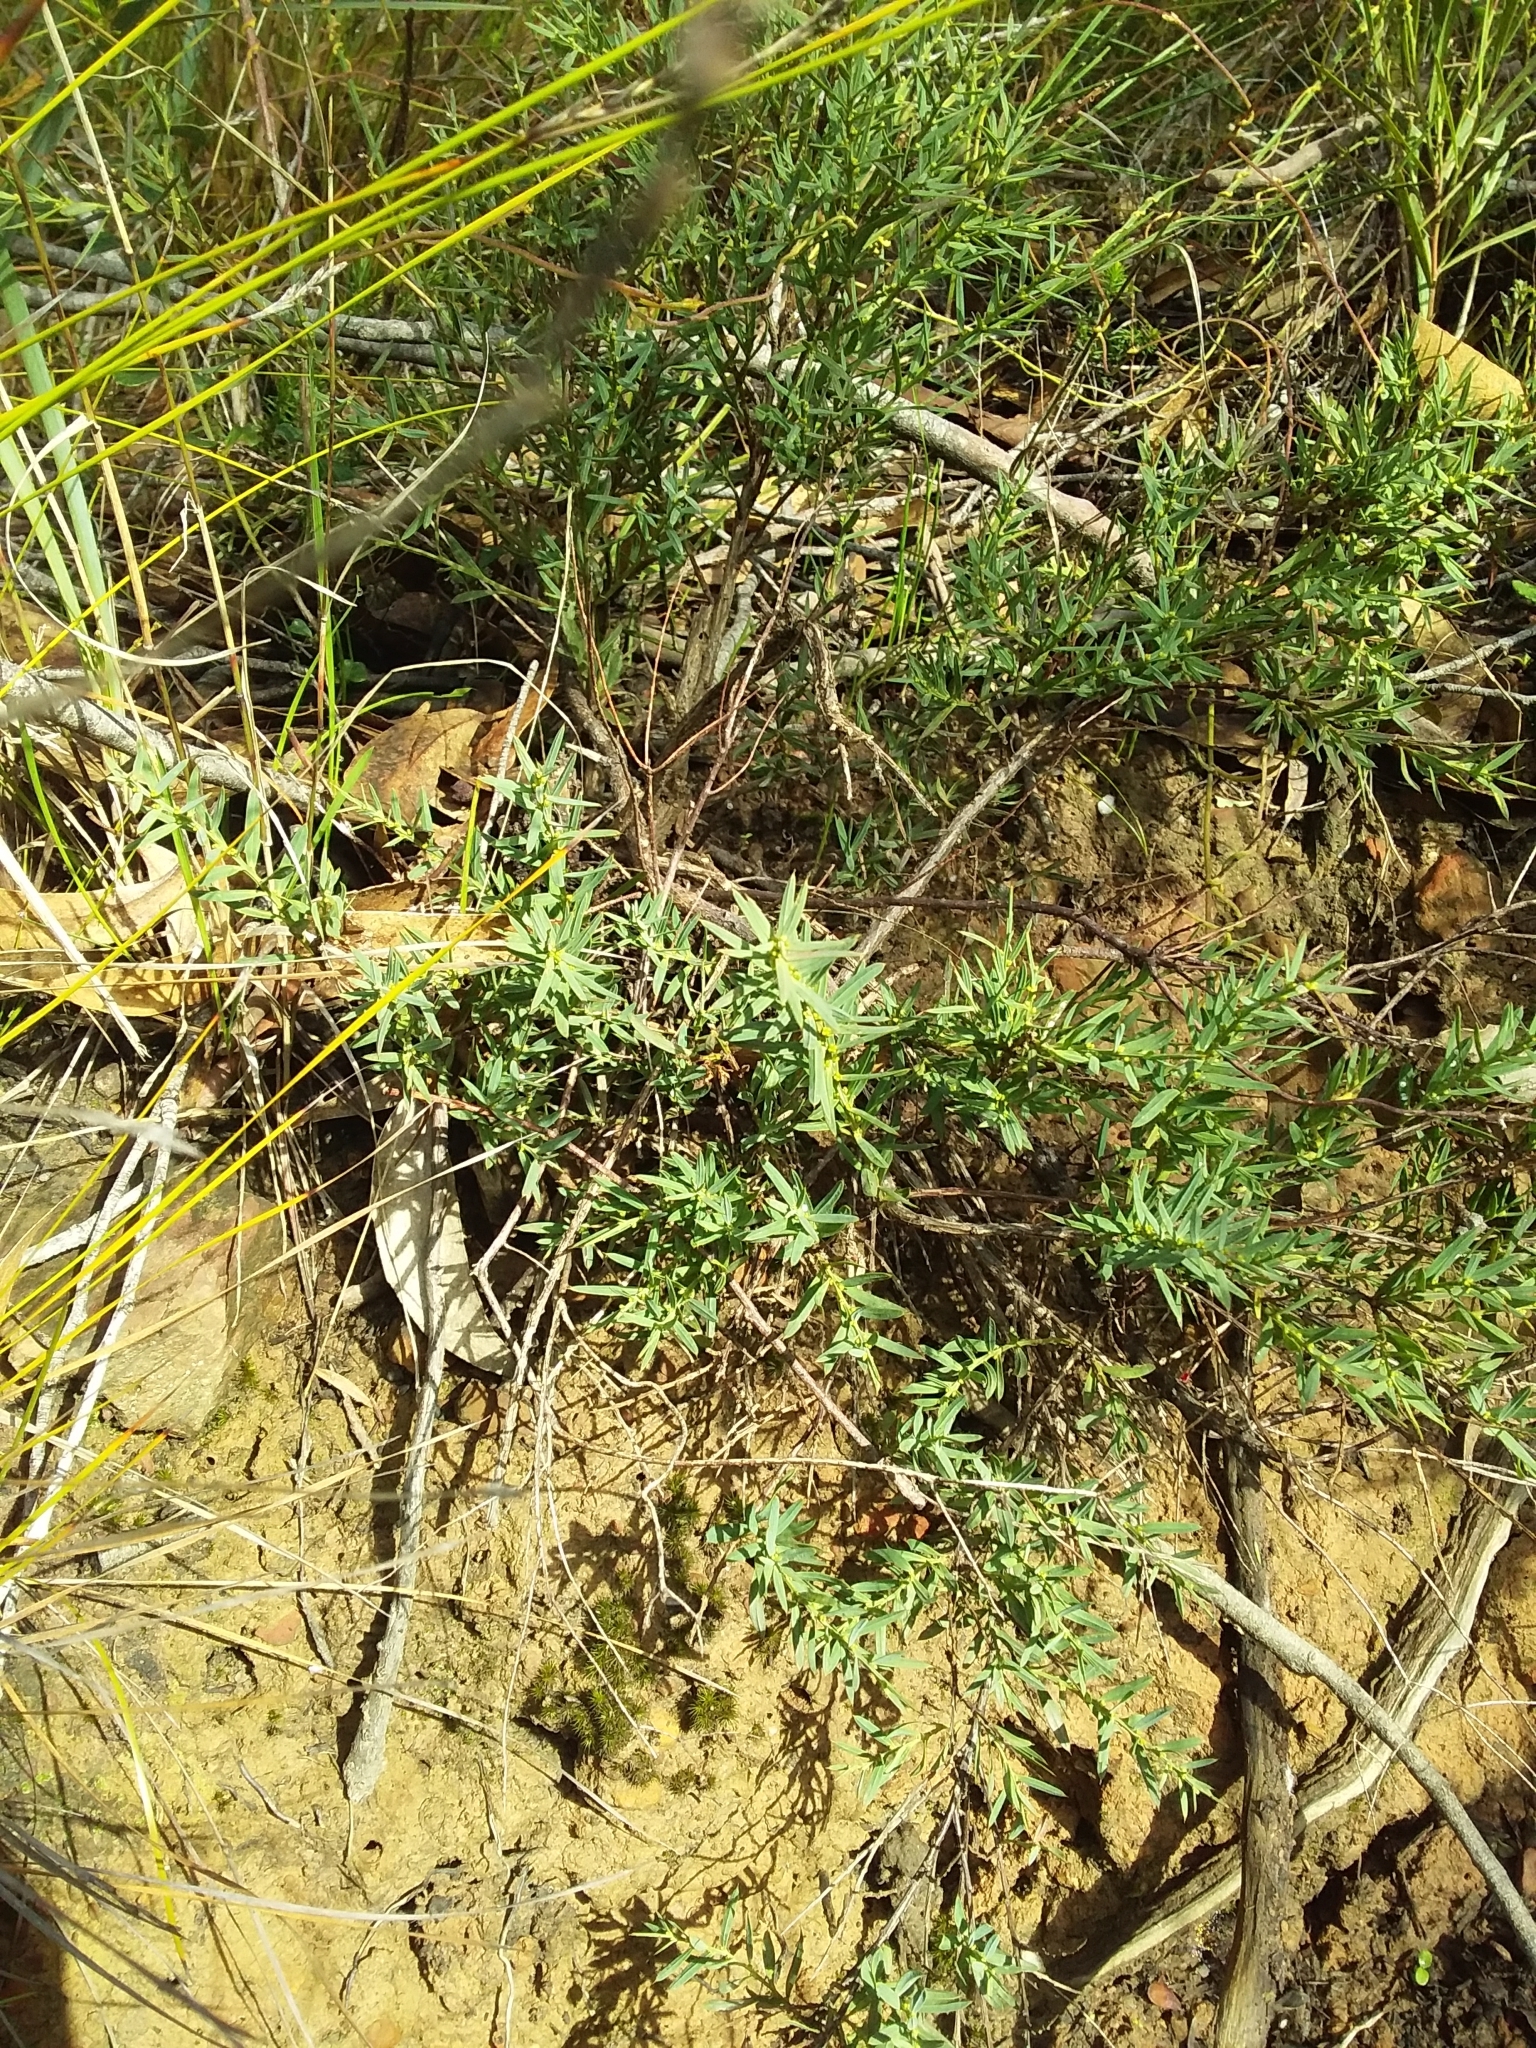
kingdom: Plantae
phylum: Tracheophyta
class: Magnoliopsida
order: Fabales
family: Fabaceae
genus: Daviesia
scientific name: Daviesia ulicifolia
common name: Gorse bitter-pea
